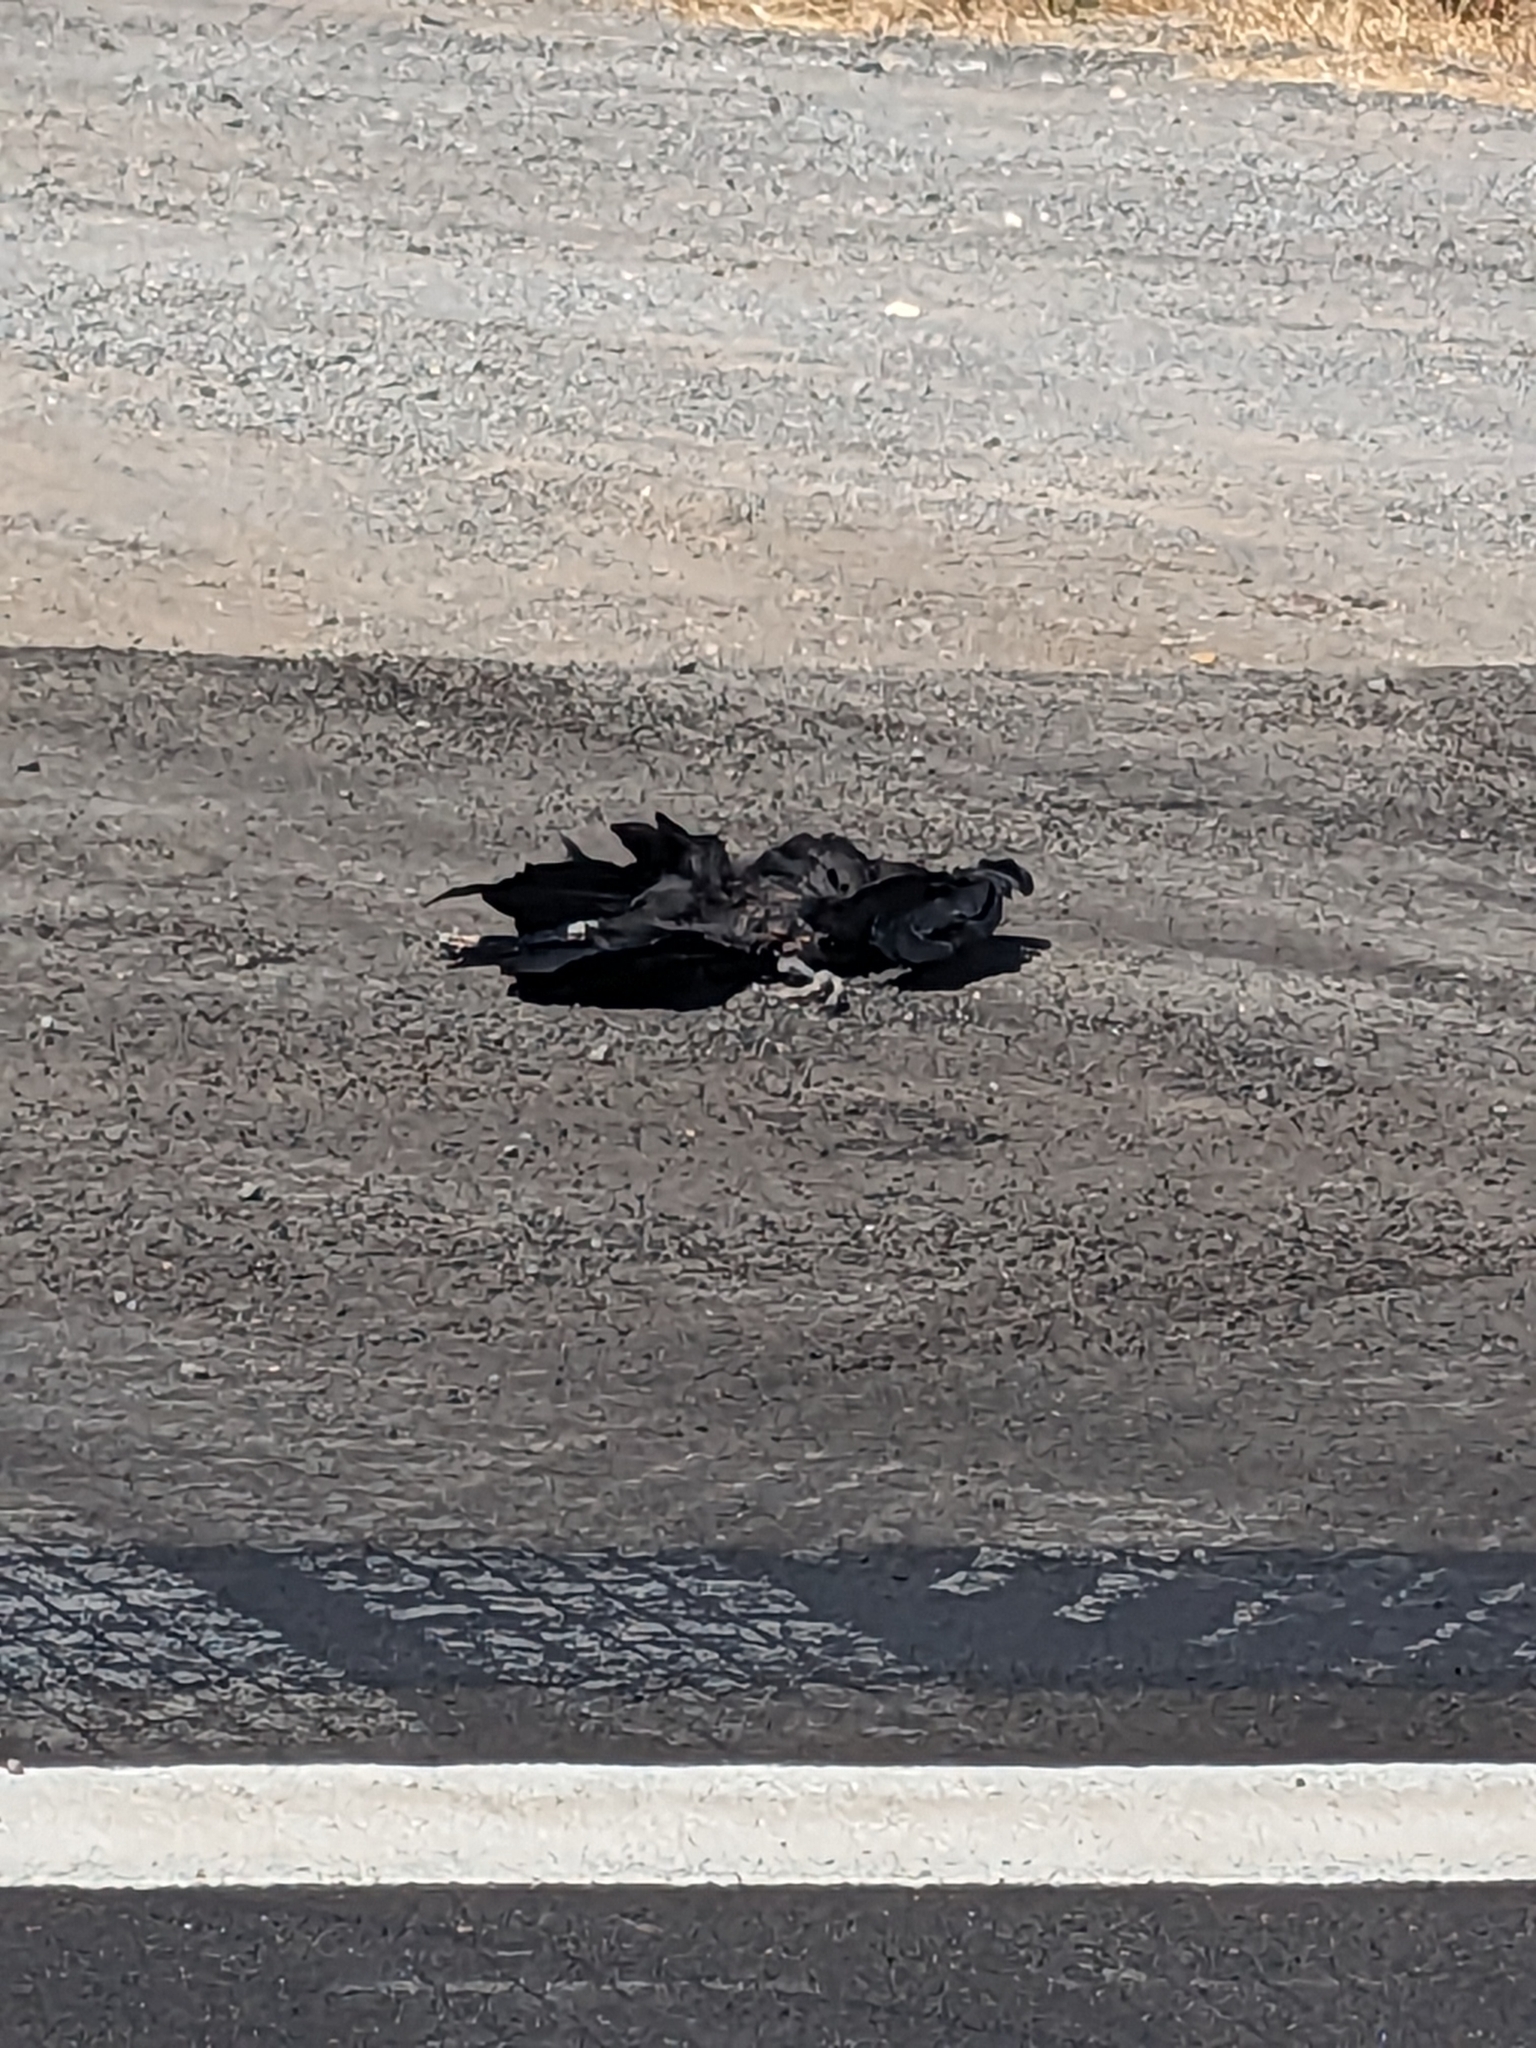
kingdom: Animalia
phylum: Chordata
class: Aves
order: Passeriformes
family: Corvidae
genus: Corvus
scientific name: Corvus corax
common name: Common raven
